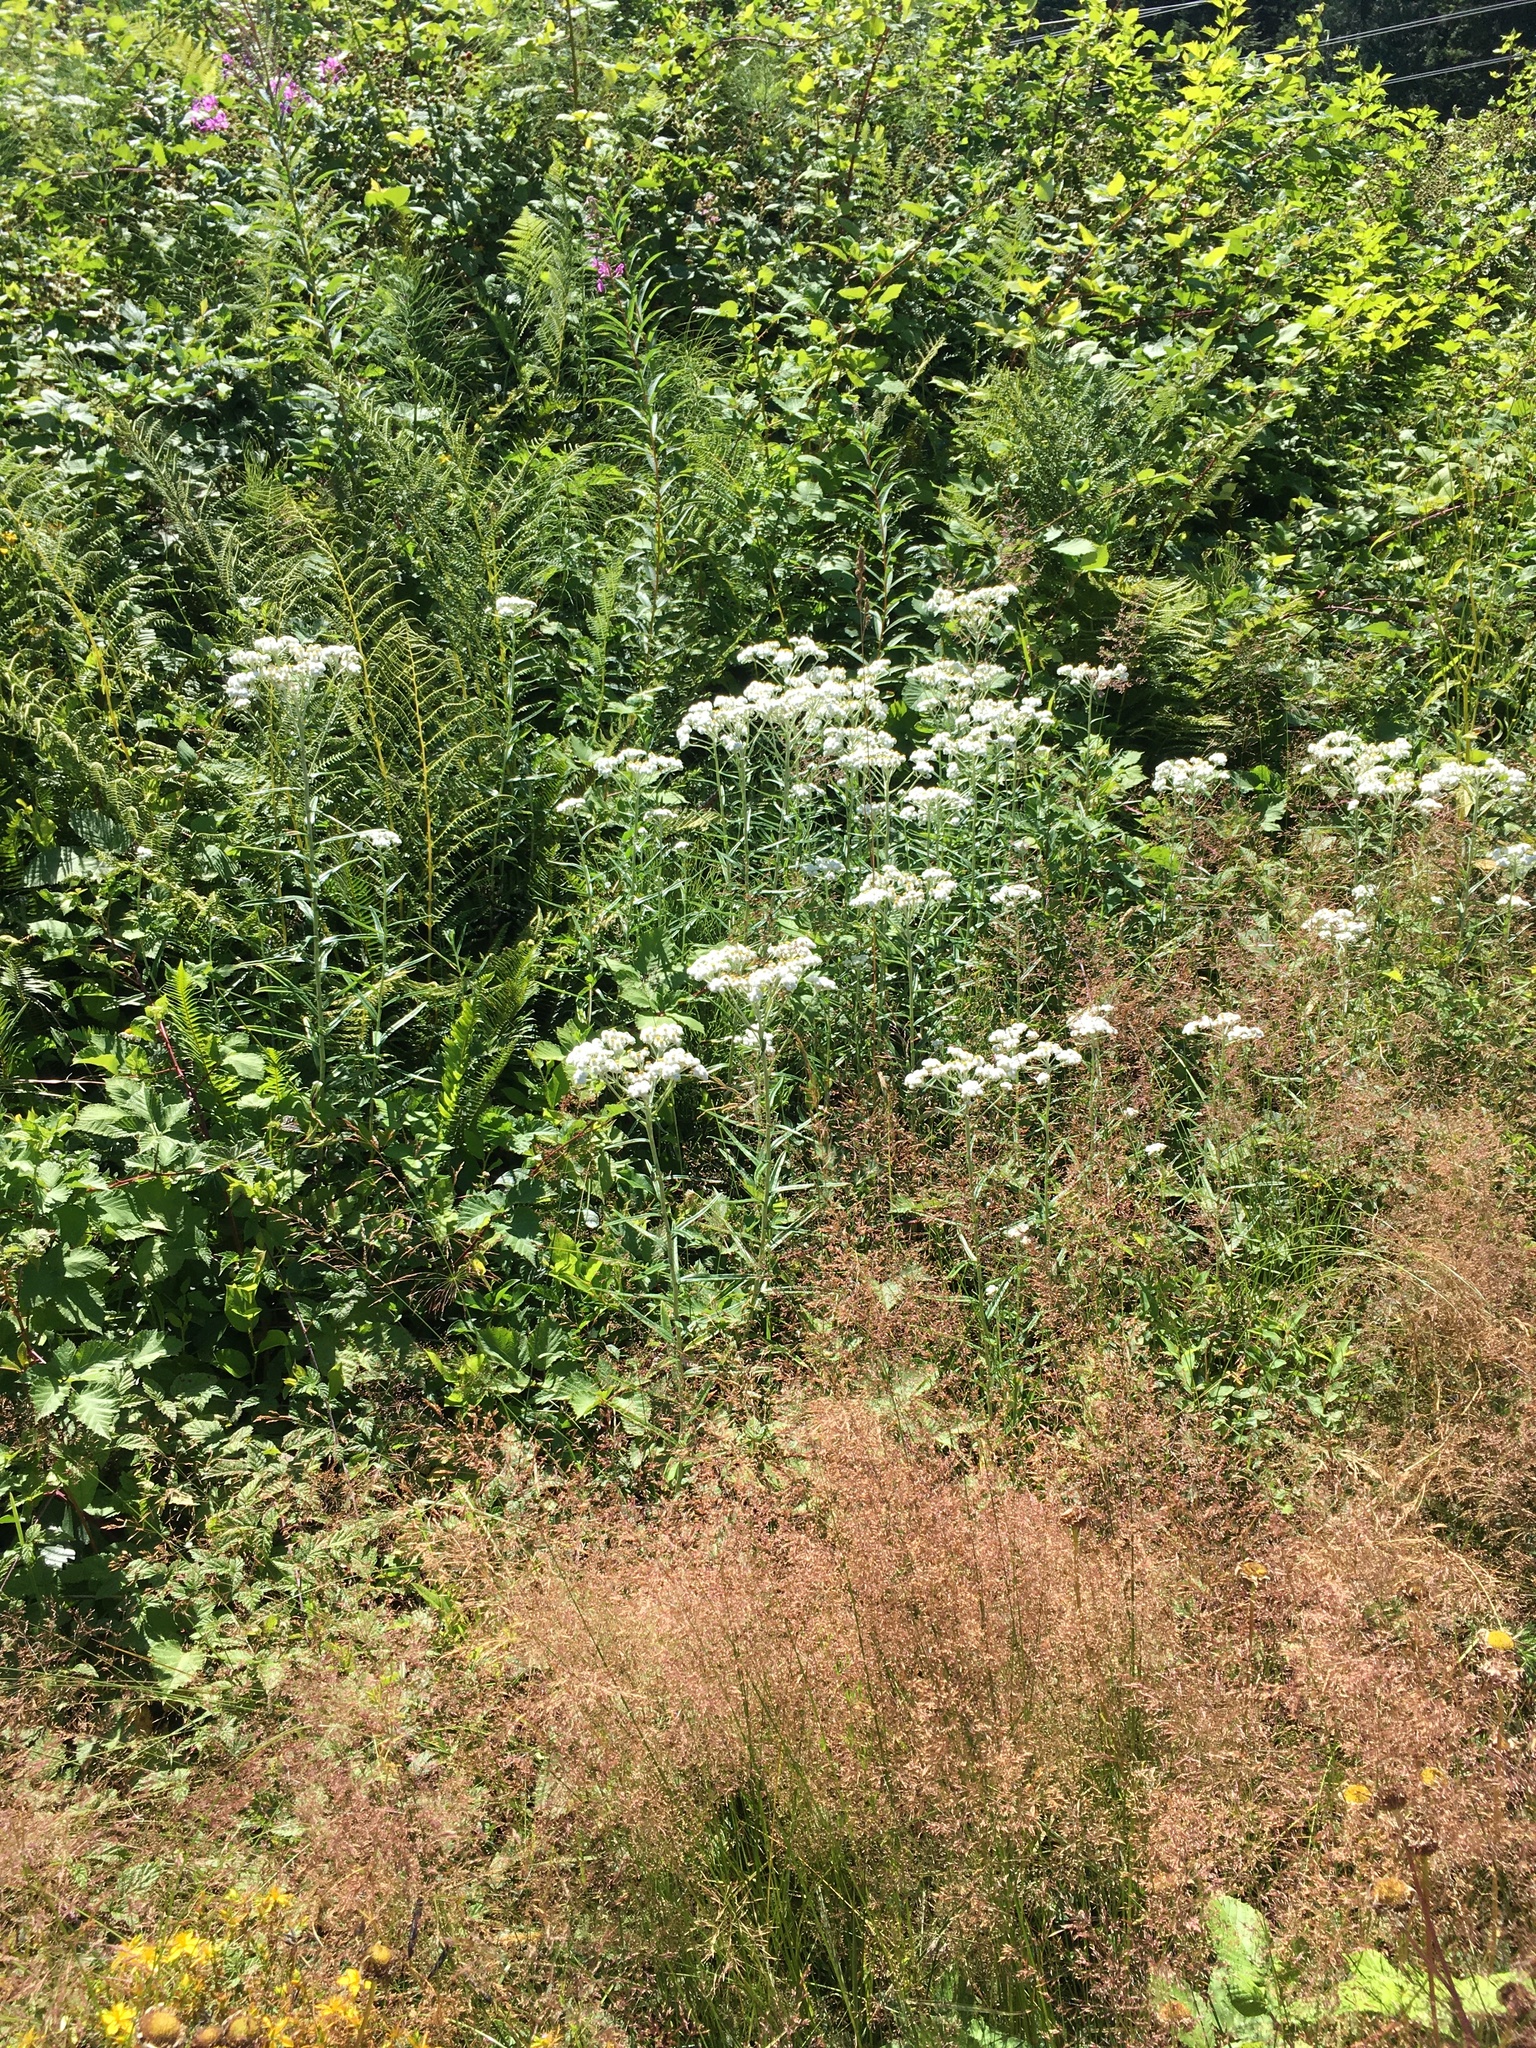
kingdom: Plantae
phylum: Tracheophyta
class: Magnoliopsida
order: Asterales
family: Asteraceae
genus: Anaphalis
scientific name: Anaphalis margaritacea
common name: Pearly everlasting
